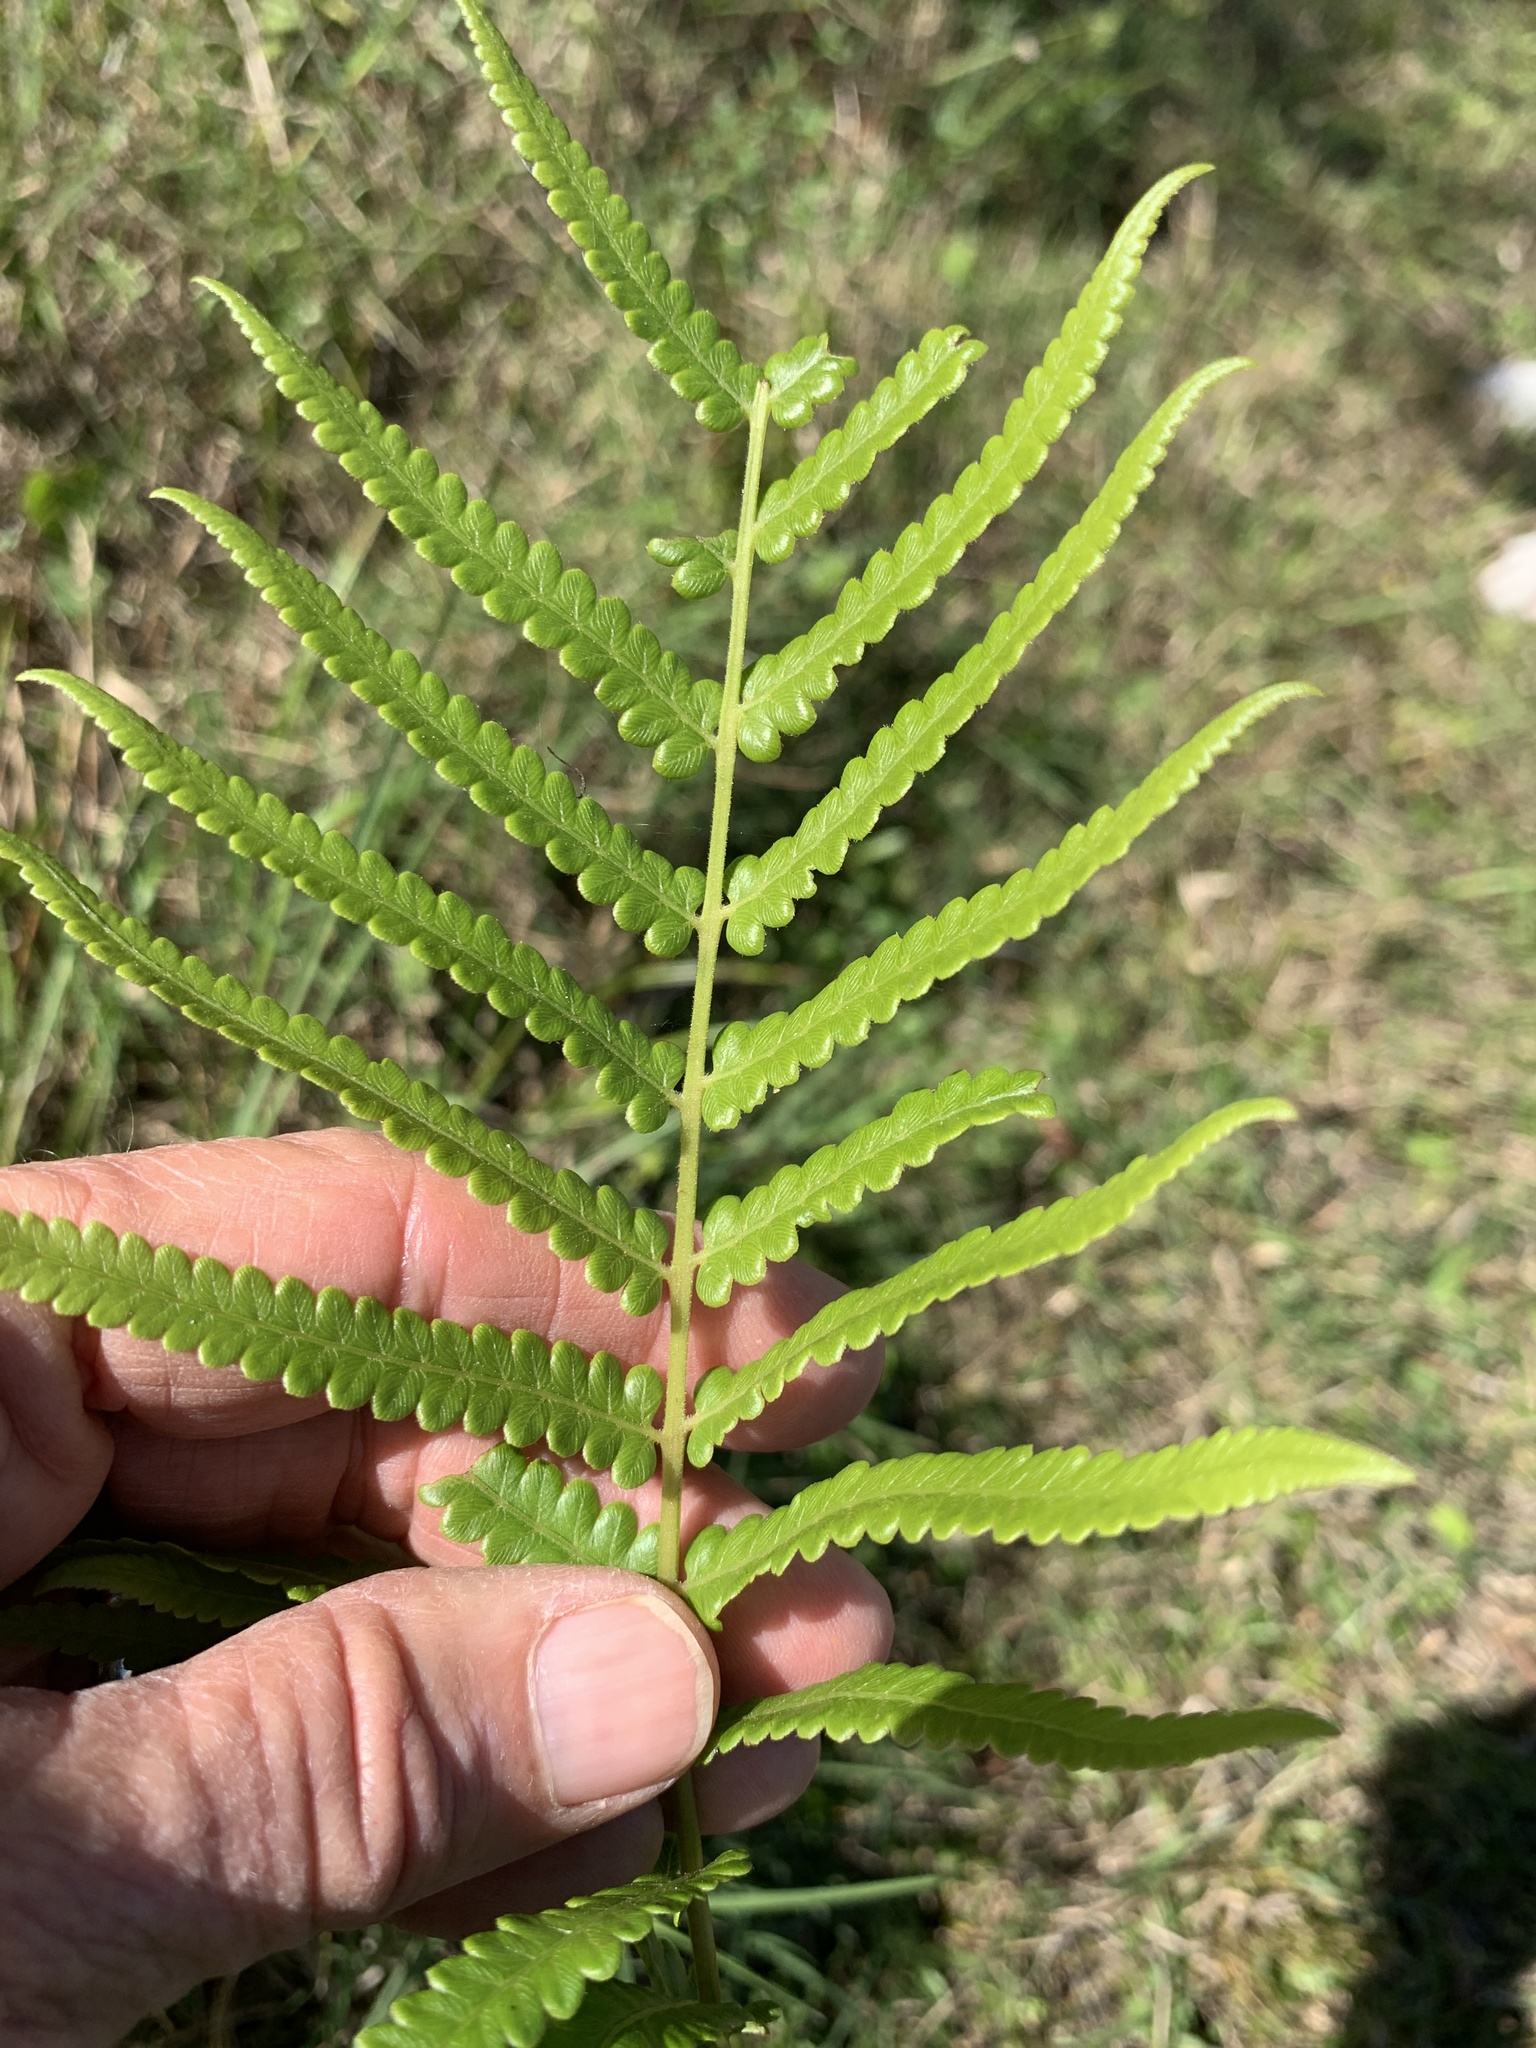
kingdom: Plantae
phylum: Tracheophyta
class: Polypodiopsida
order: Polypodiales
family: Thelypteridaceae
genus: Cyclosorus
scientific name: Cyclosorus interruptus
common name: Neke fern
